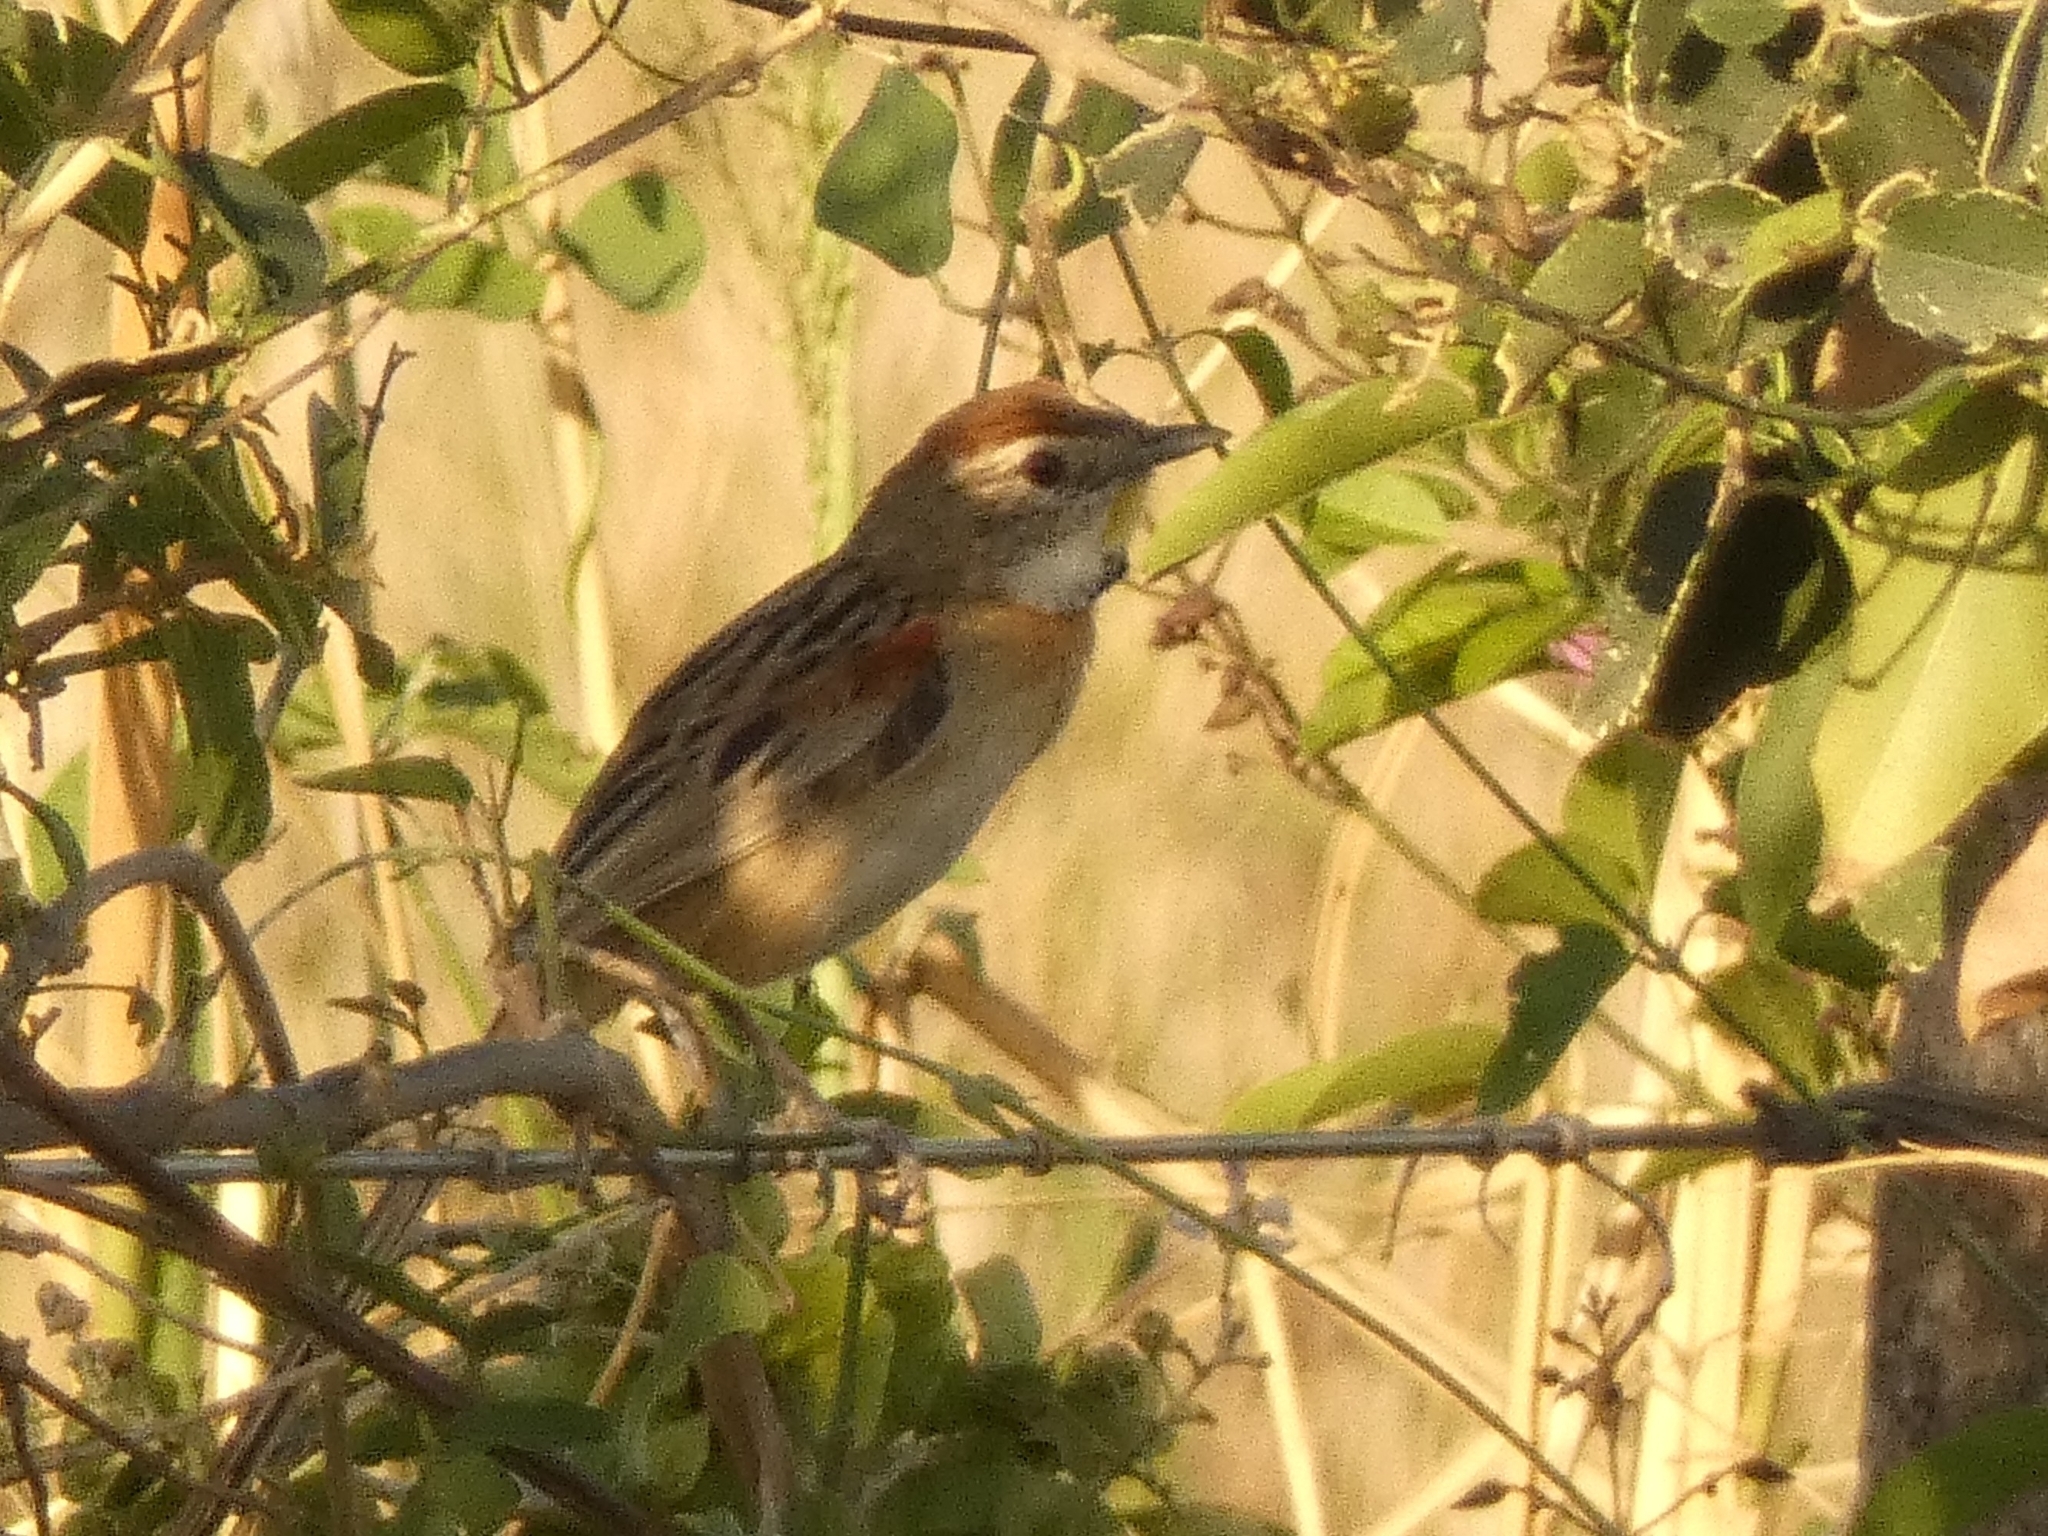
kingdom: Animalia
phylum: Chordata
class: Aves
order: Passeriformes
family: Furnariidae
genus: Schoeniophylax
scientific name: Schoeniophylax phryganophilus
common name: Chotoy spinetail
